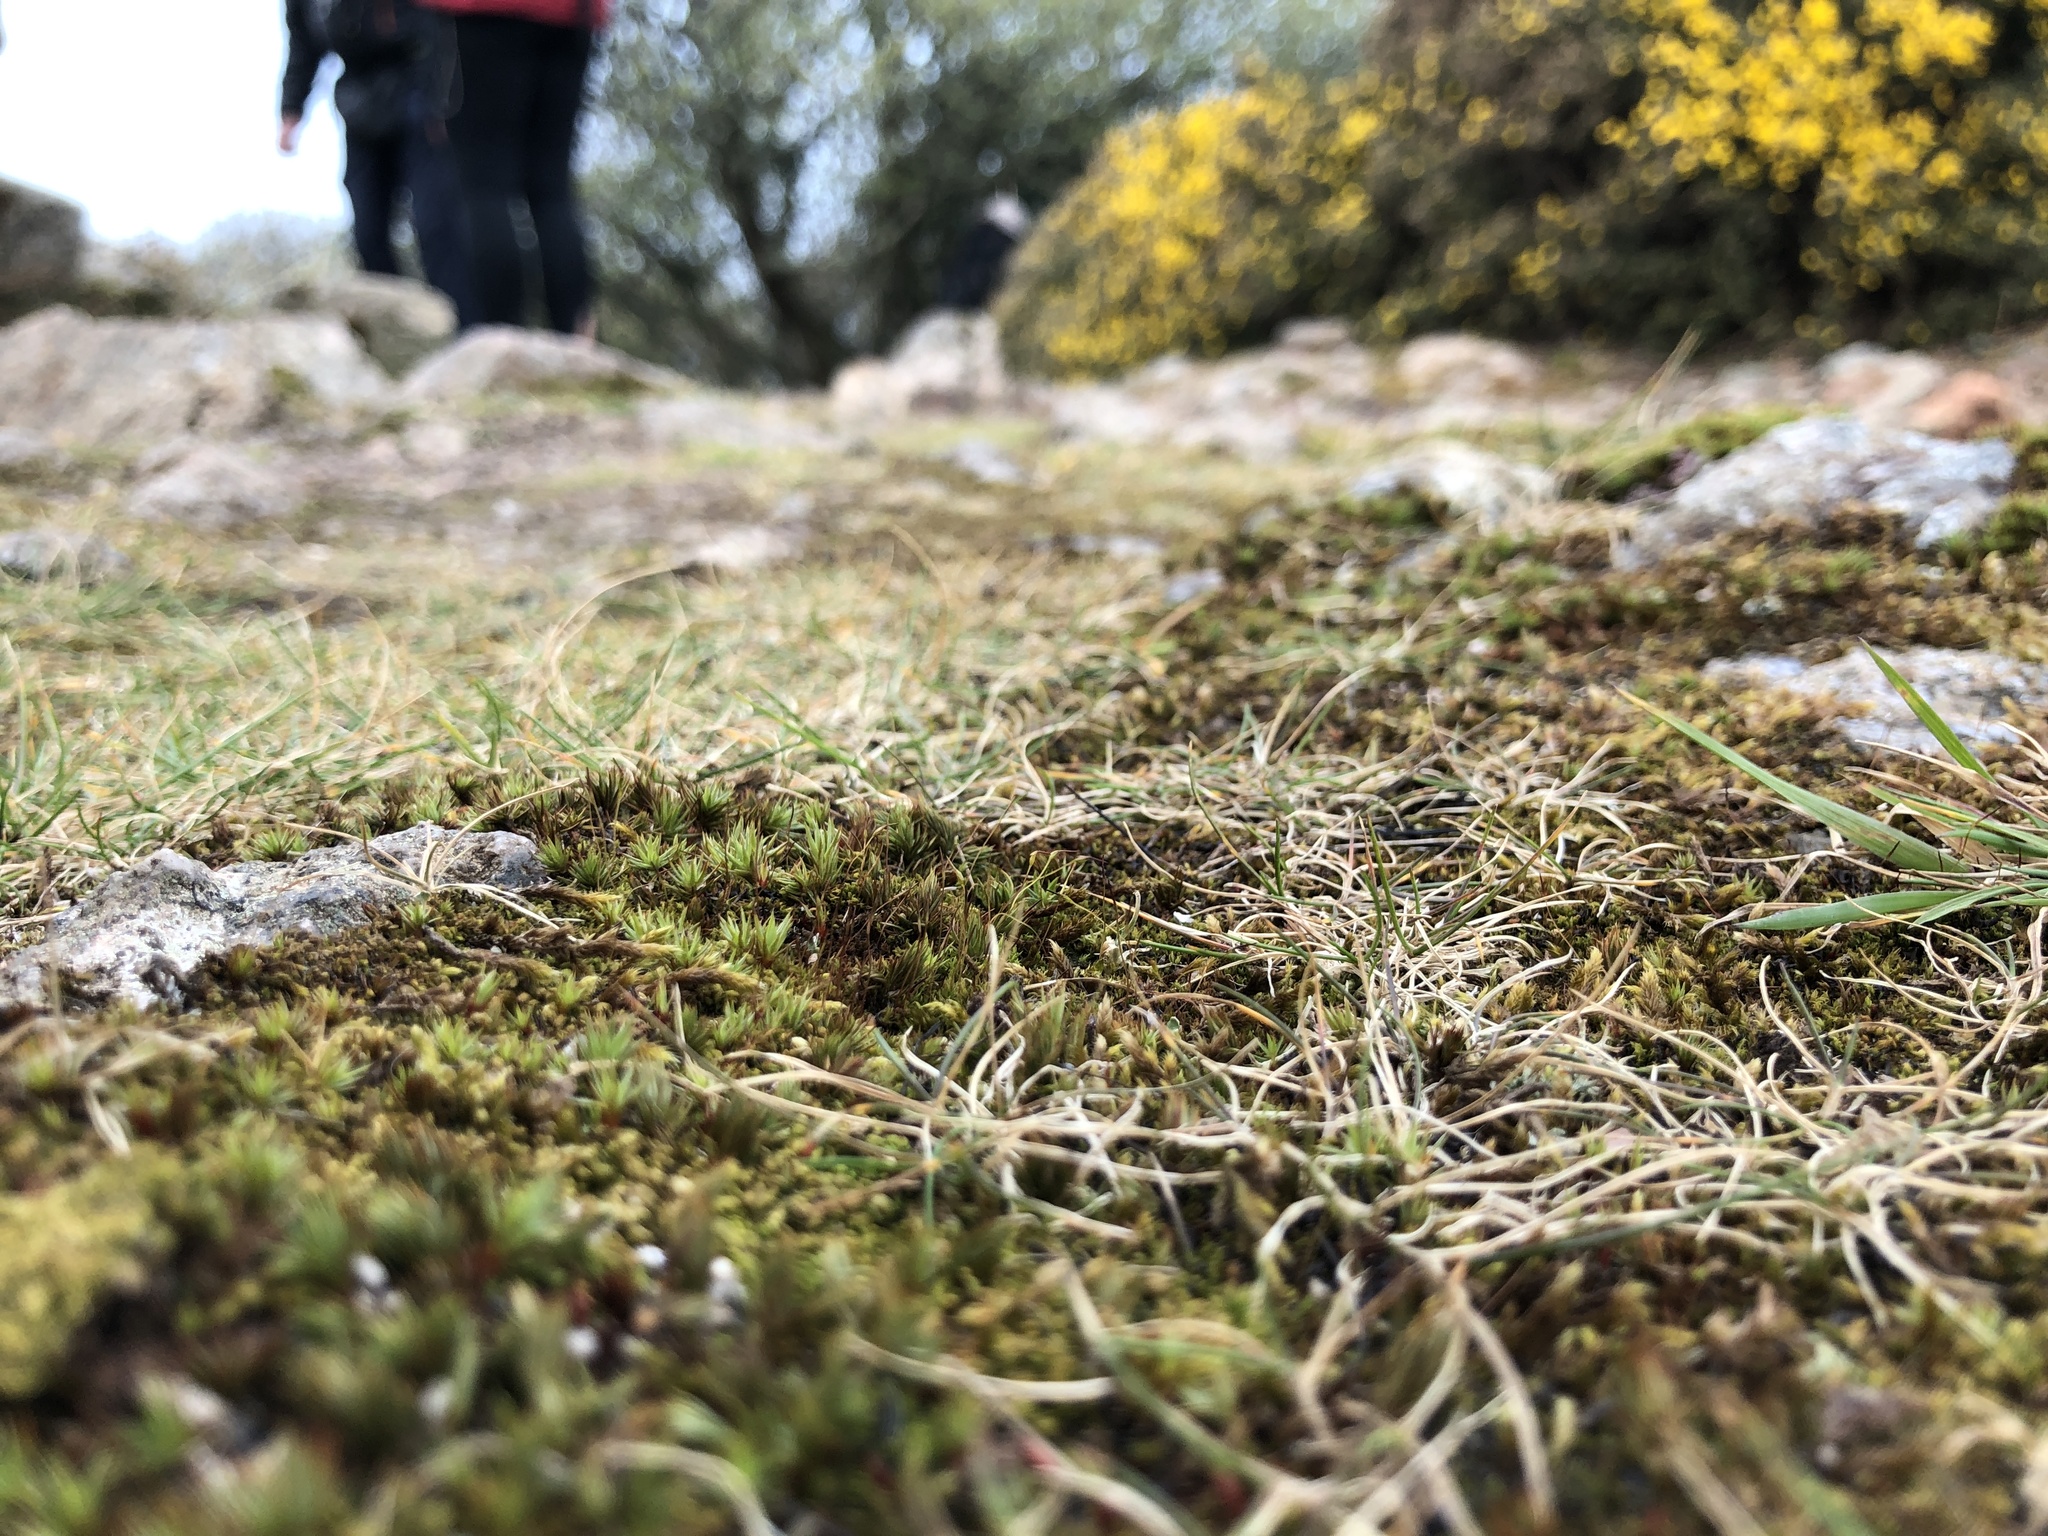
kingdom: Plantae
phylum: Marchantiophyta
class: Jungermanniopsida
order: Jungermanniales
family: Scapaniaceae
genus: Scapania
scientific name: Scapania compacta
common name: Thick-set earwort
